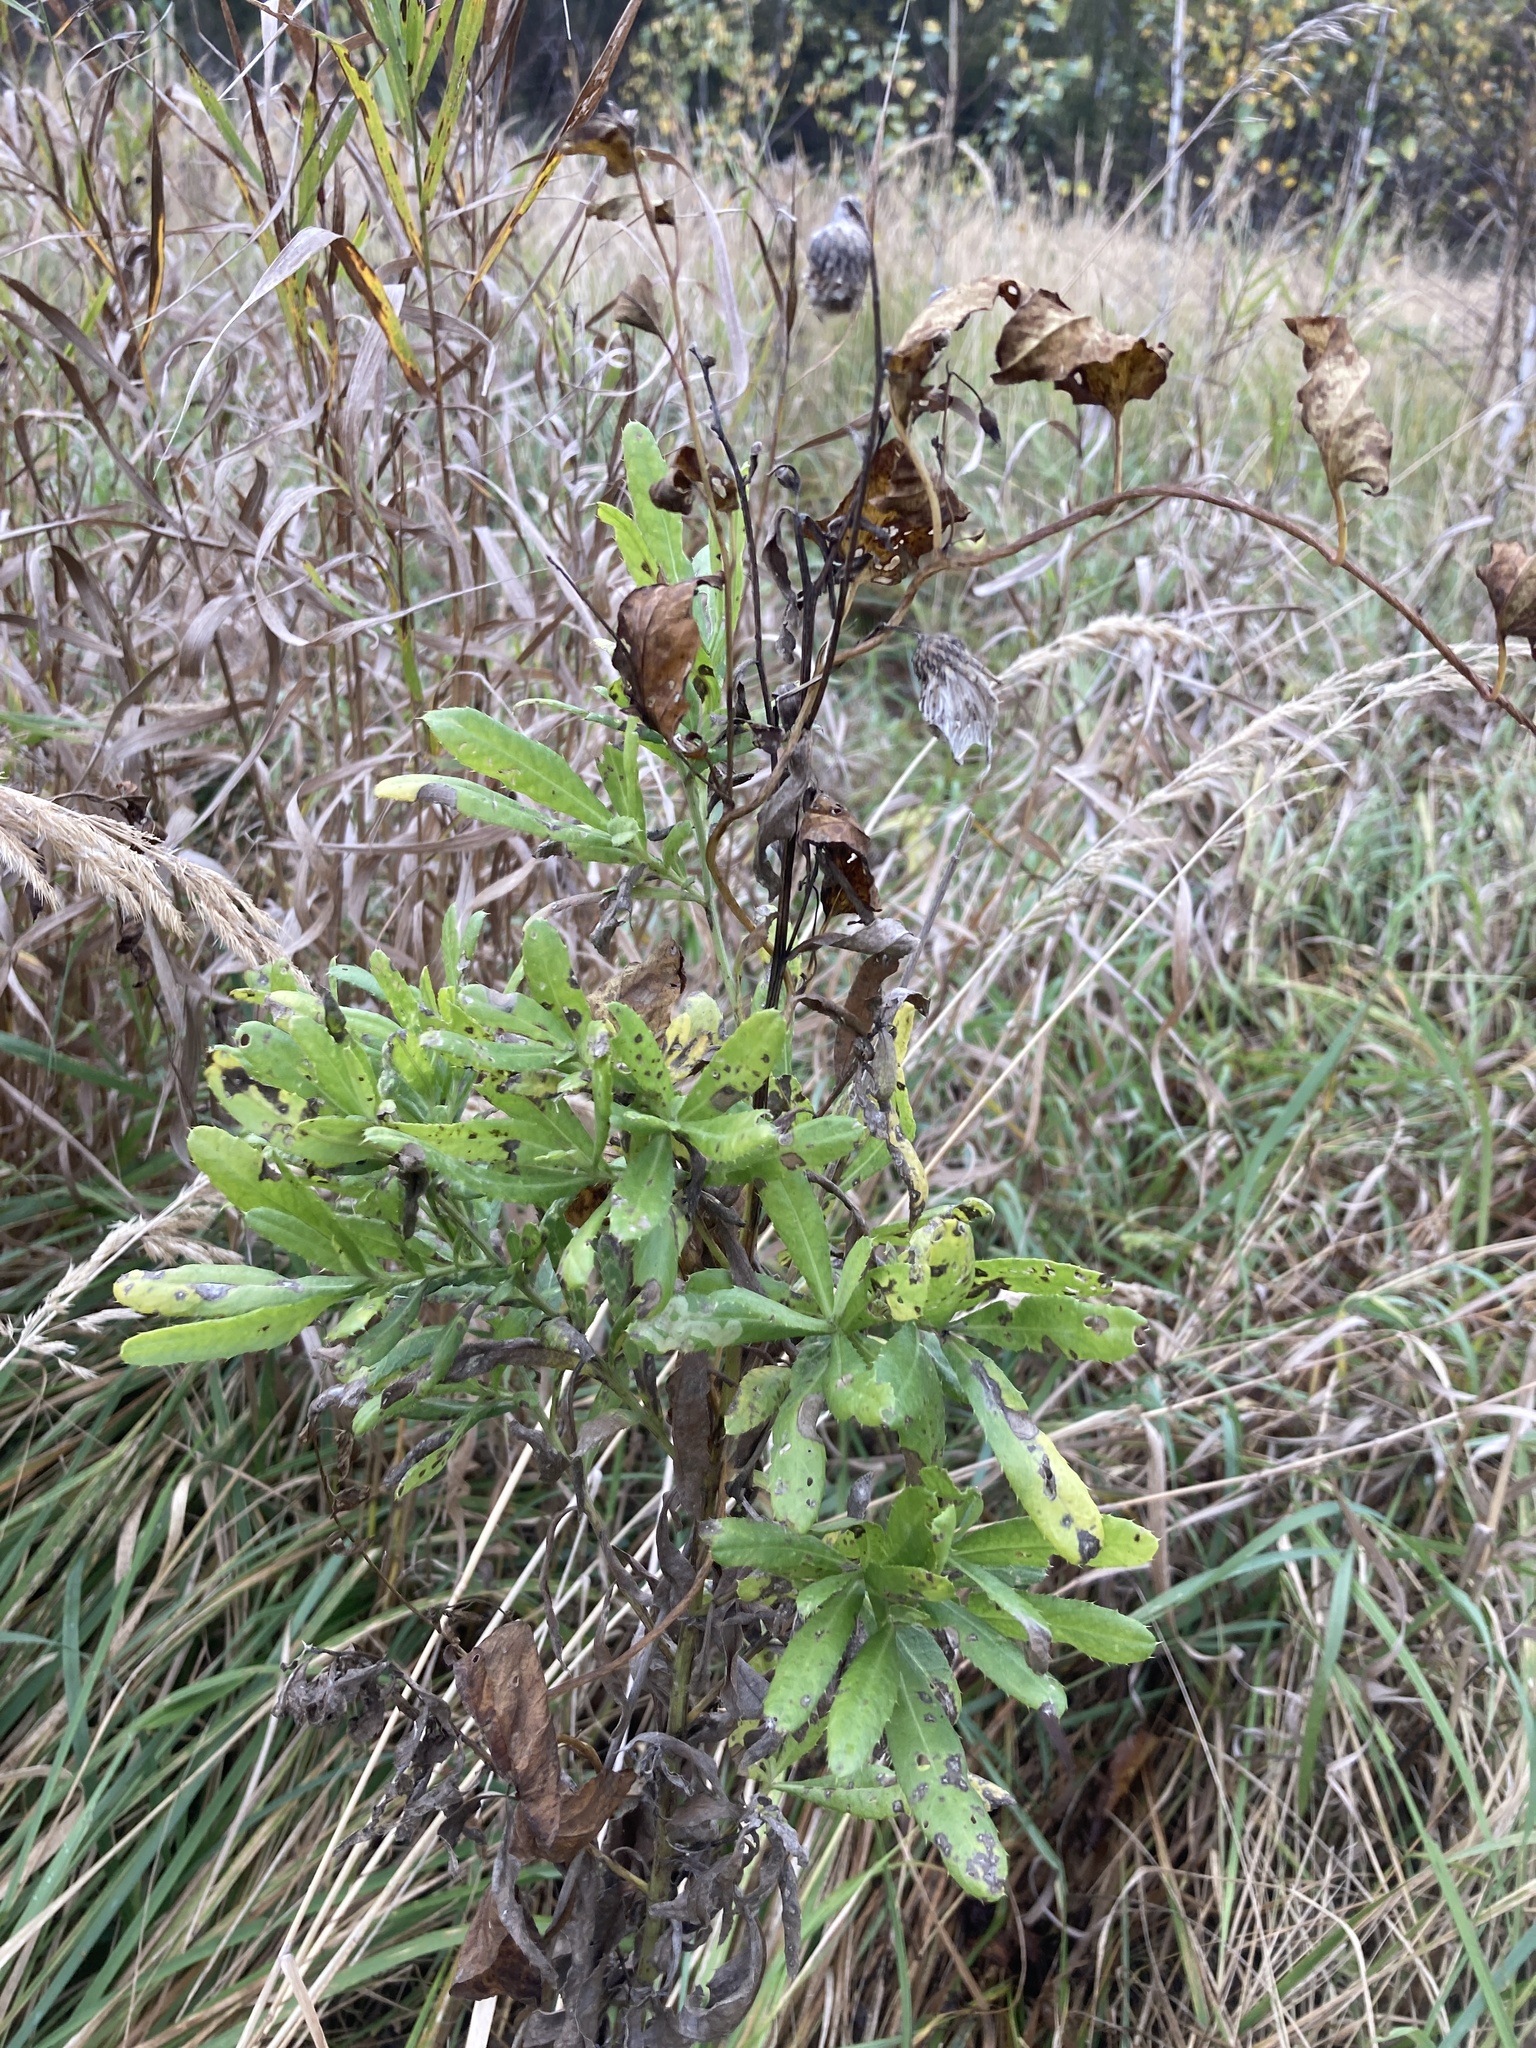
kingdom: Plantae
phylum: Tracheophyta
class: Magnoliopsida
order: Asterales
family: Asteraceae
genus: Cirsium
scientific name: Cirsium arvense
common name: Creeping thistle
